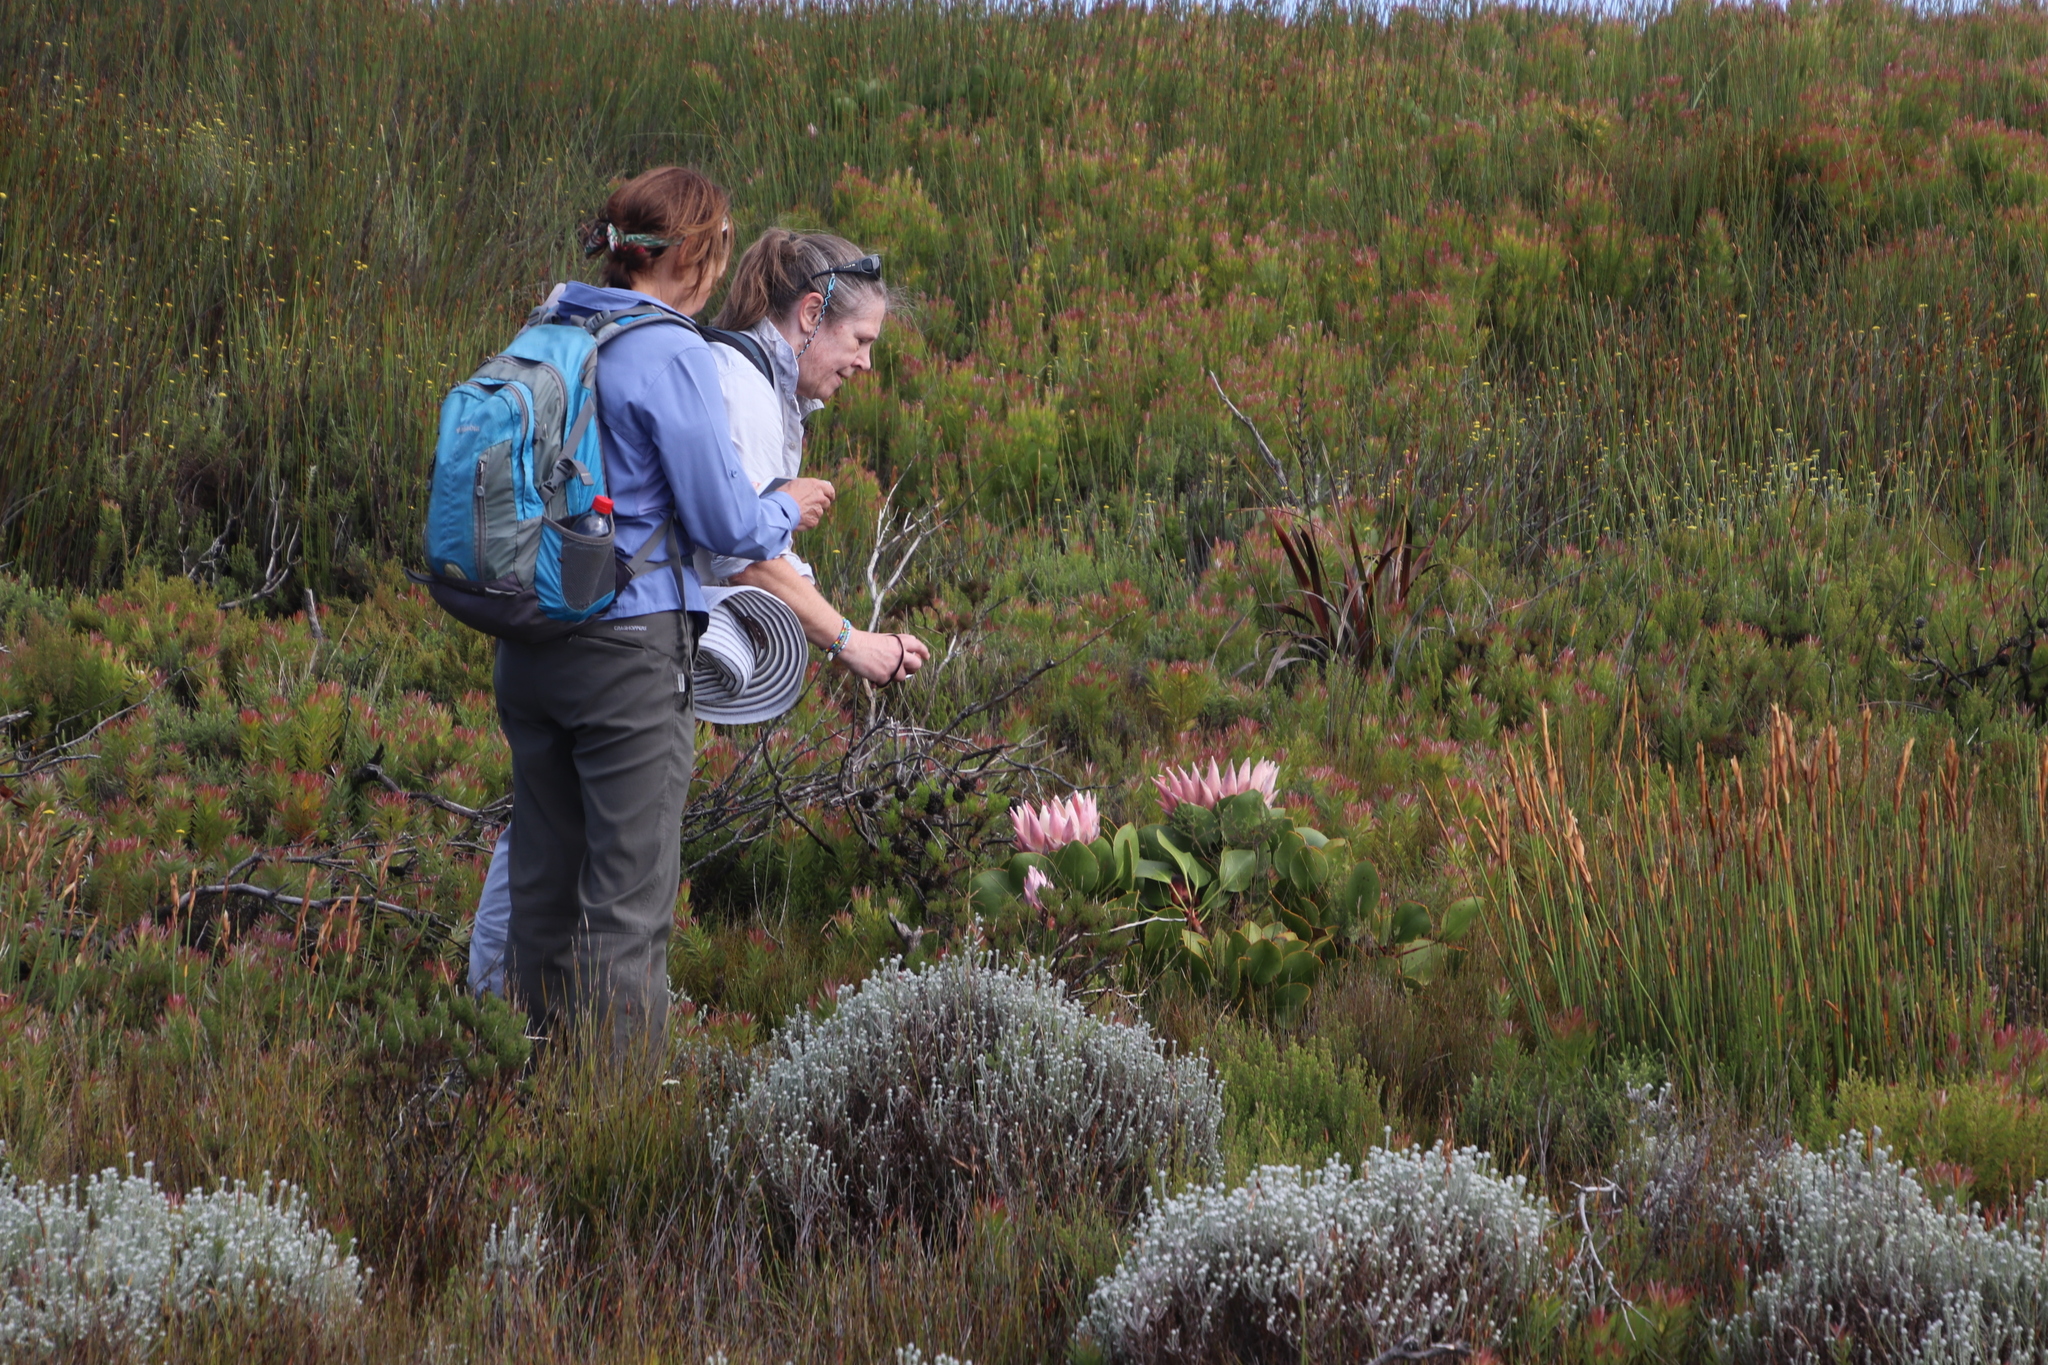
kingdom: Plantae
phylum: Tracheophyta
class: Magnoliopsida
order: Proteales
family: Proteaceae
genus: Protea
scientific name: Protea cynaroides
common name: King protea
